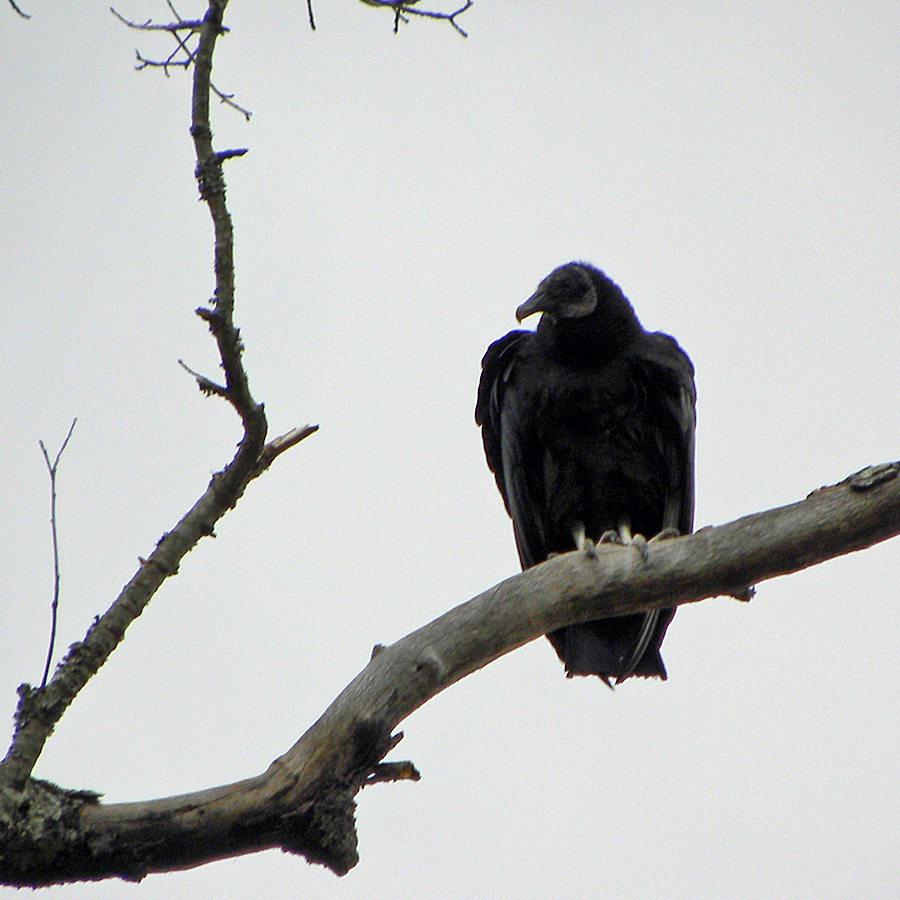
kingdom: Animalia
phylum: Chordata
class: Aves
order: Accipitriformes
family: Cathartidae
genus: Coragyps
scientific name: Coragyps atratus
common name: Black vulture
